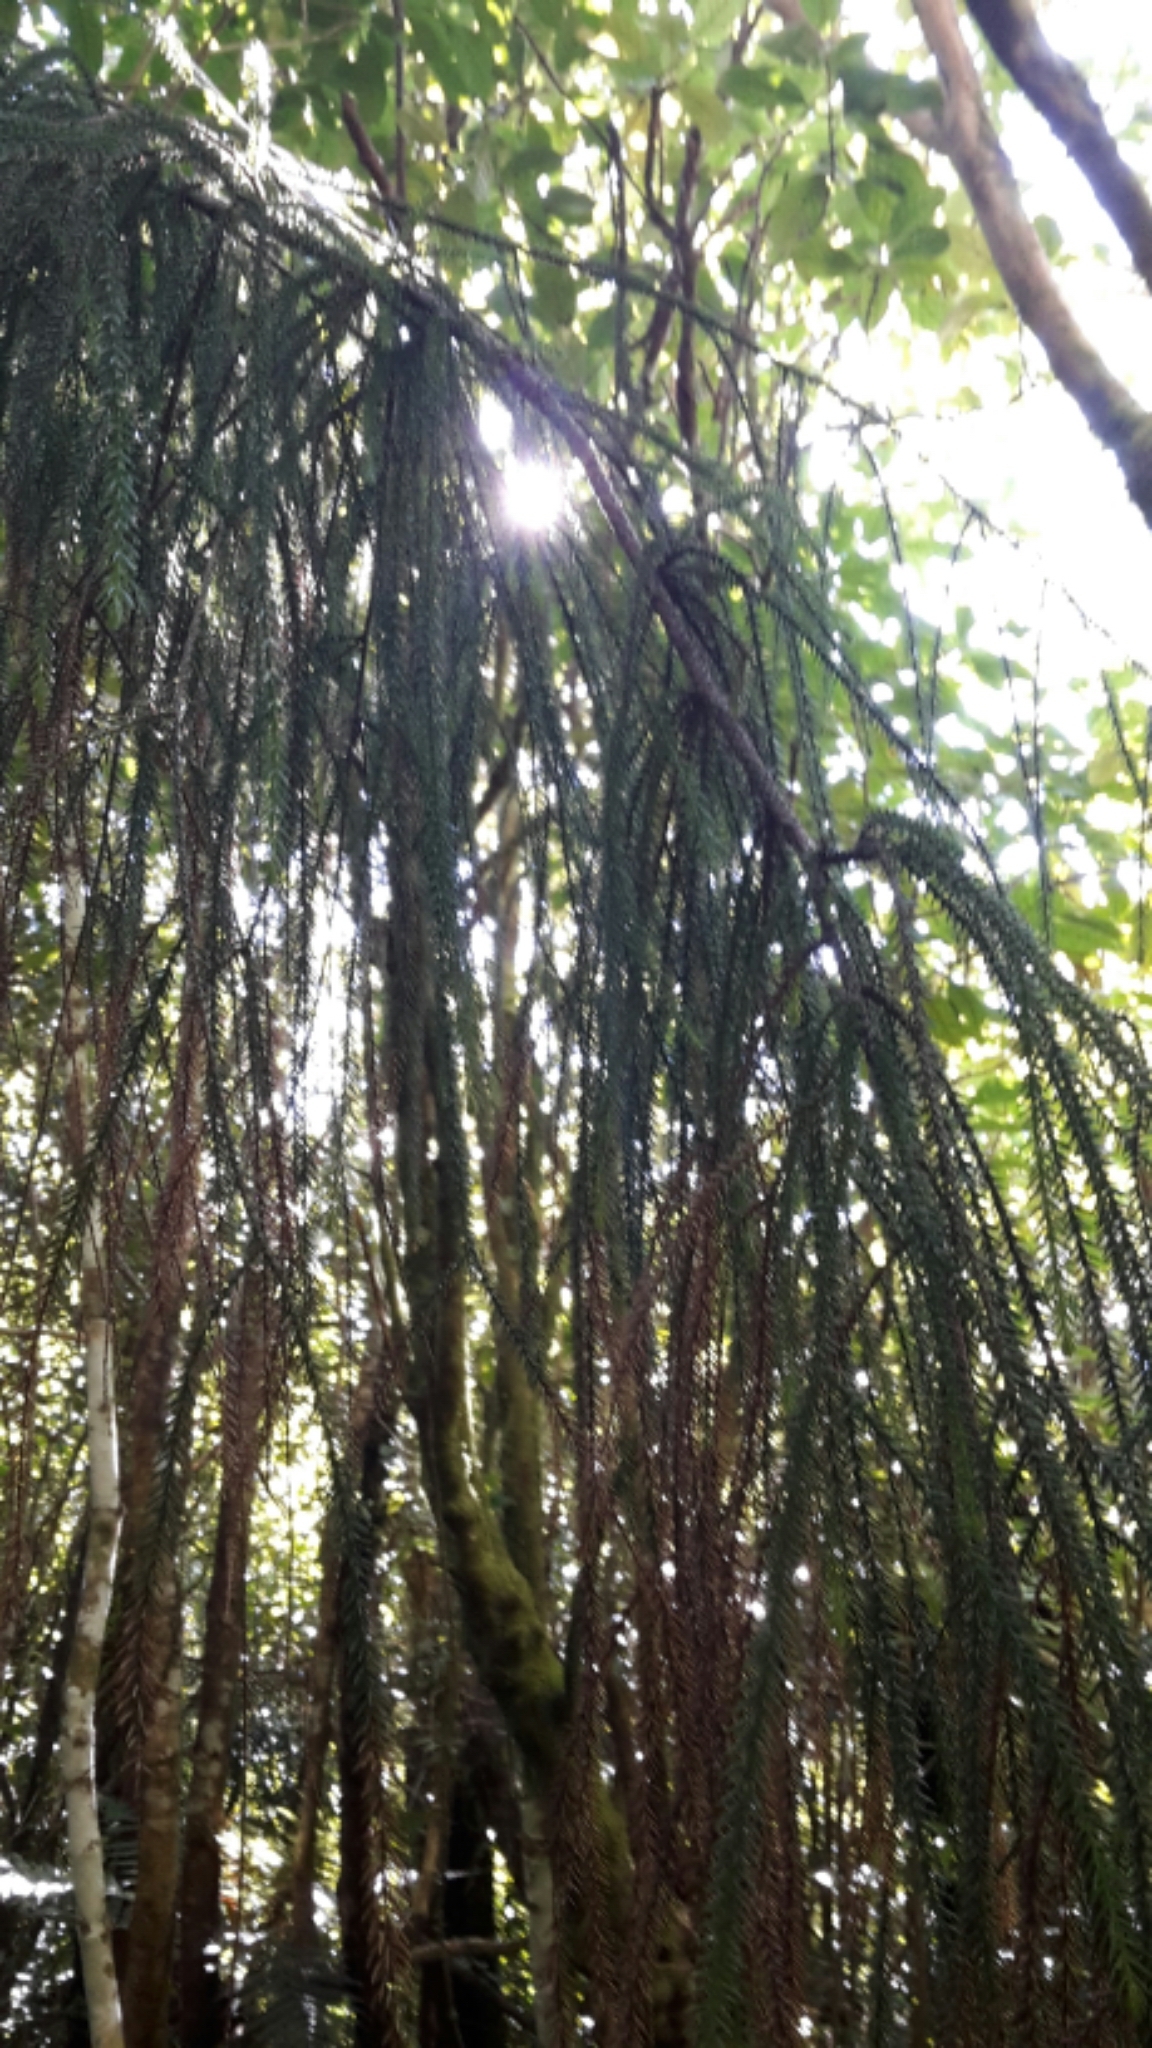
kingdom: Plantae
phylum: Tracheophyta
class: Pinopsida
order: Pinales
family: Podocarpaceae
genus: Dacrydium
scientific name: Dacrydium cupressinum
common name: Red pine
